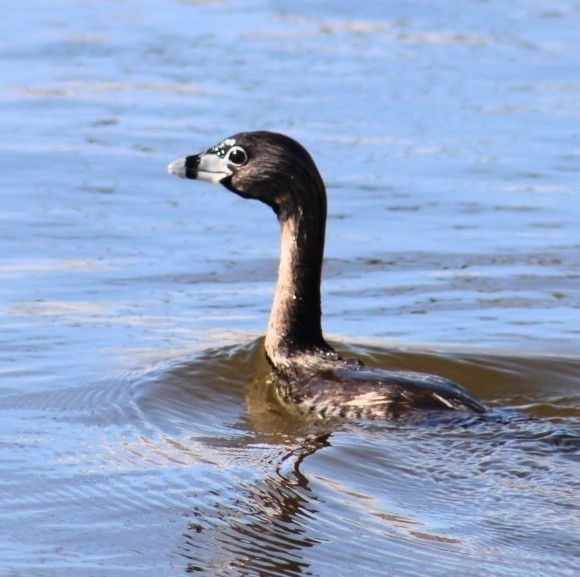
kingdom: Animalia
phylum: Chordata
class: Aves
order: Podicipediformes
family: Podicipedidae
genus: Podilymbus
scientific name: Podilymbus podiceps
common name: Pied-billed grebe
